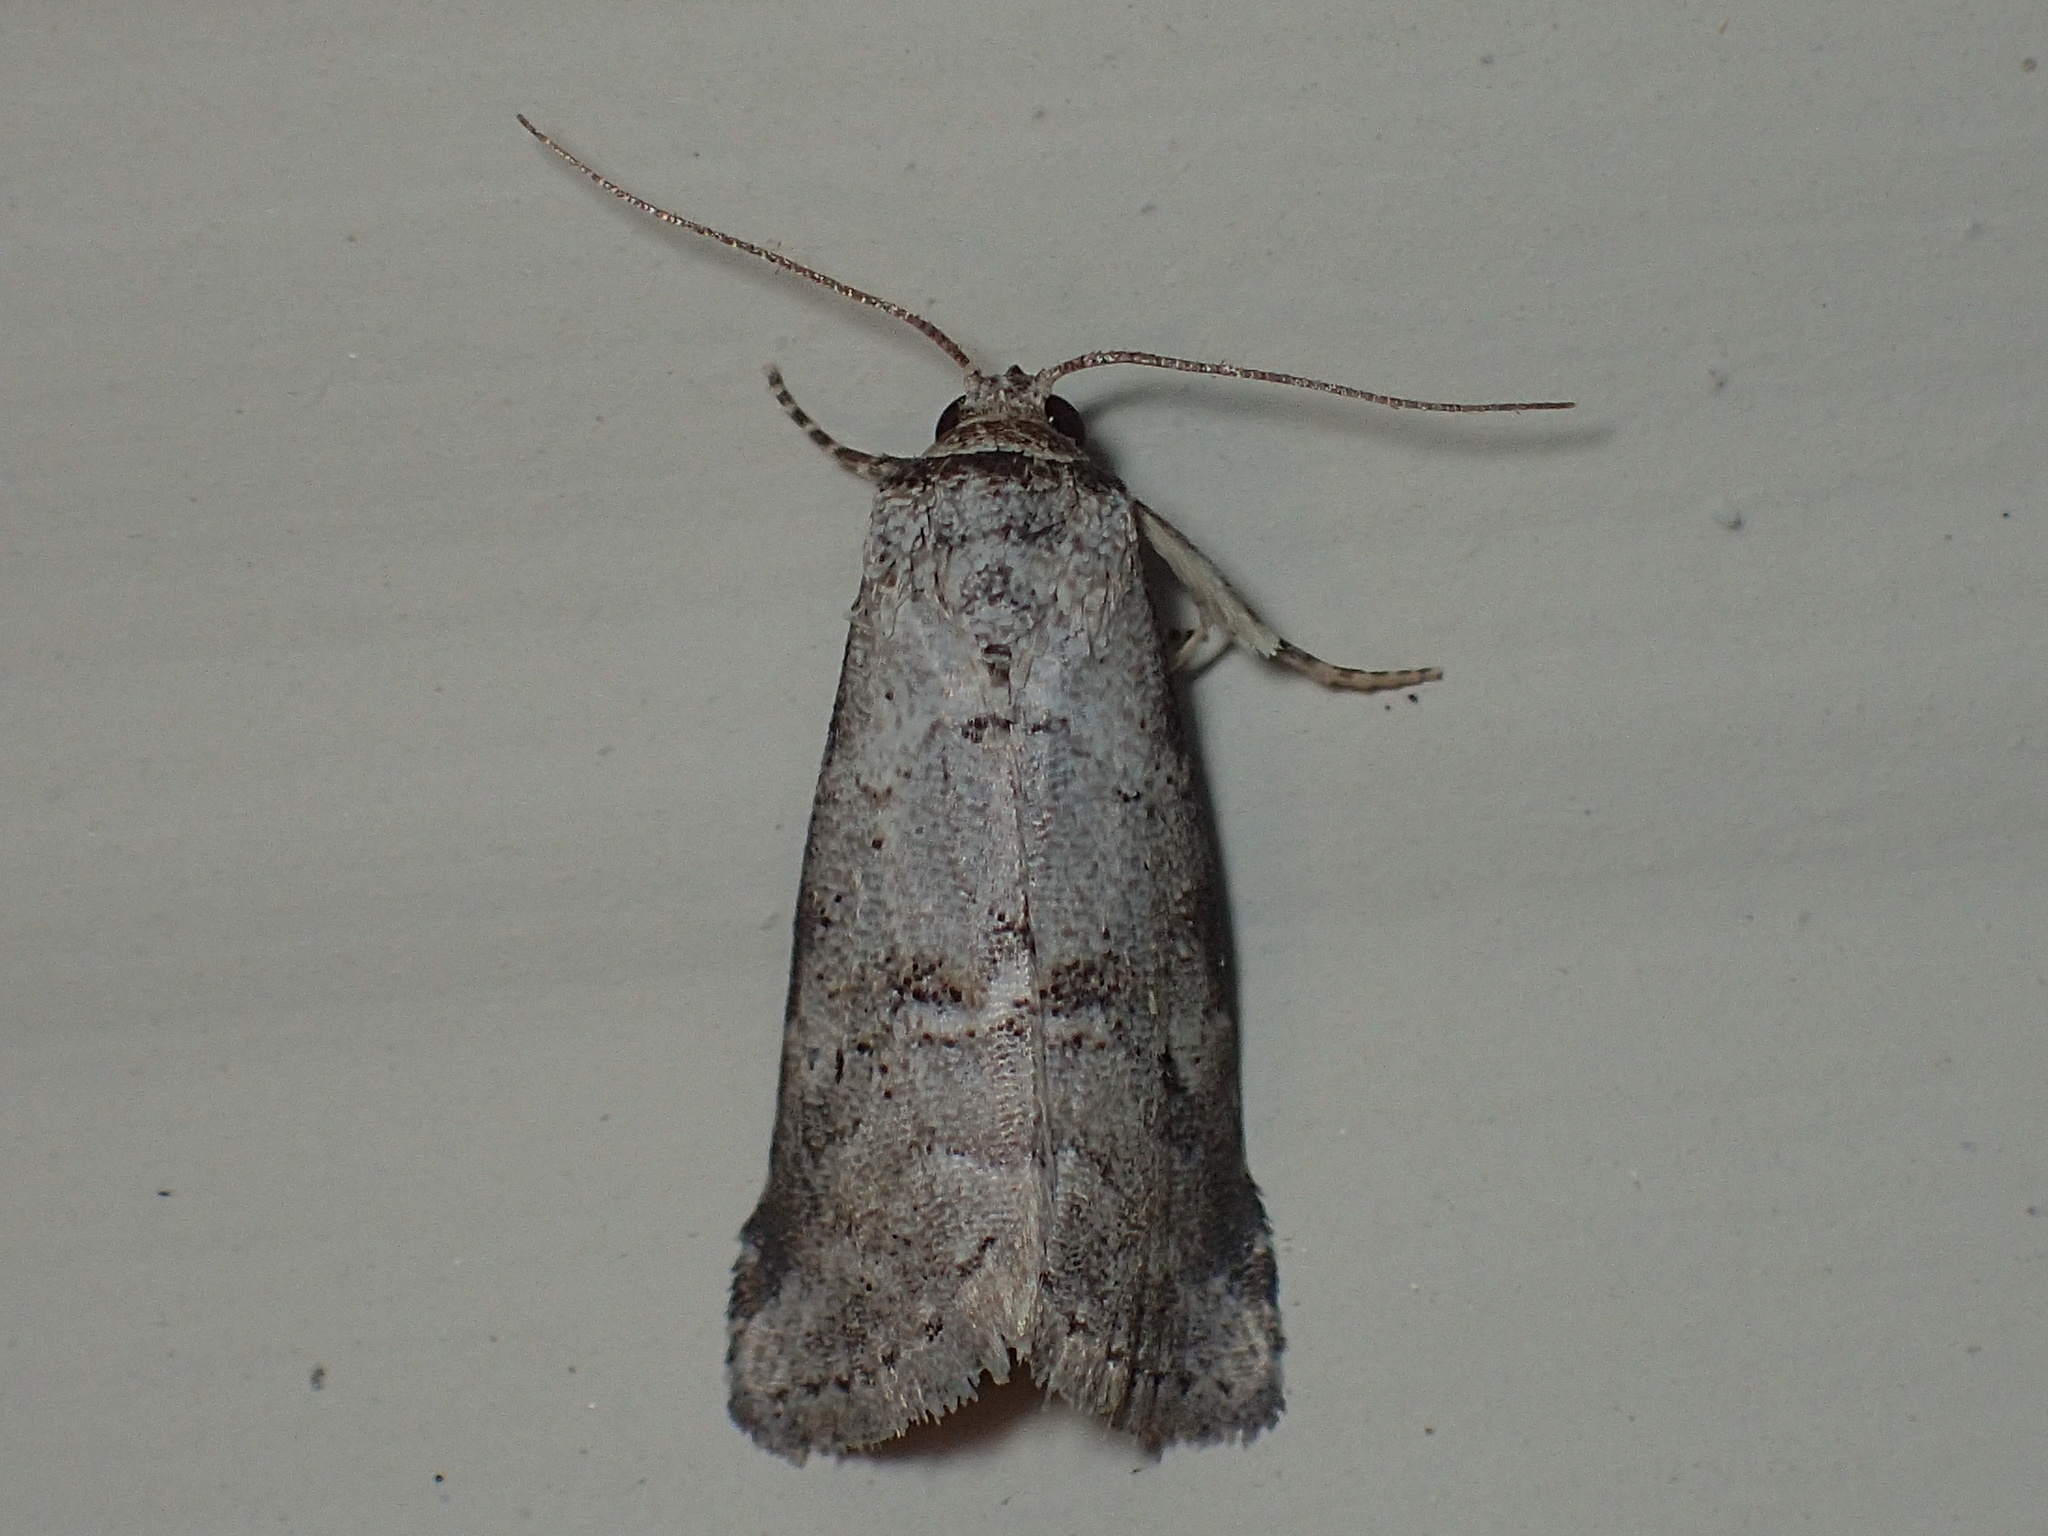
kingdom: Animalia
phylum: Arthropoda
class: Insecta
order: Lepidoptera
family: Erebidae
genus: Hyperstrotia
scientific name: Hyperstrotia pervertens
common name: Dotted graylet
